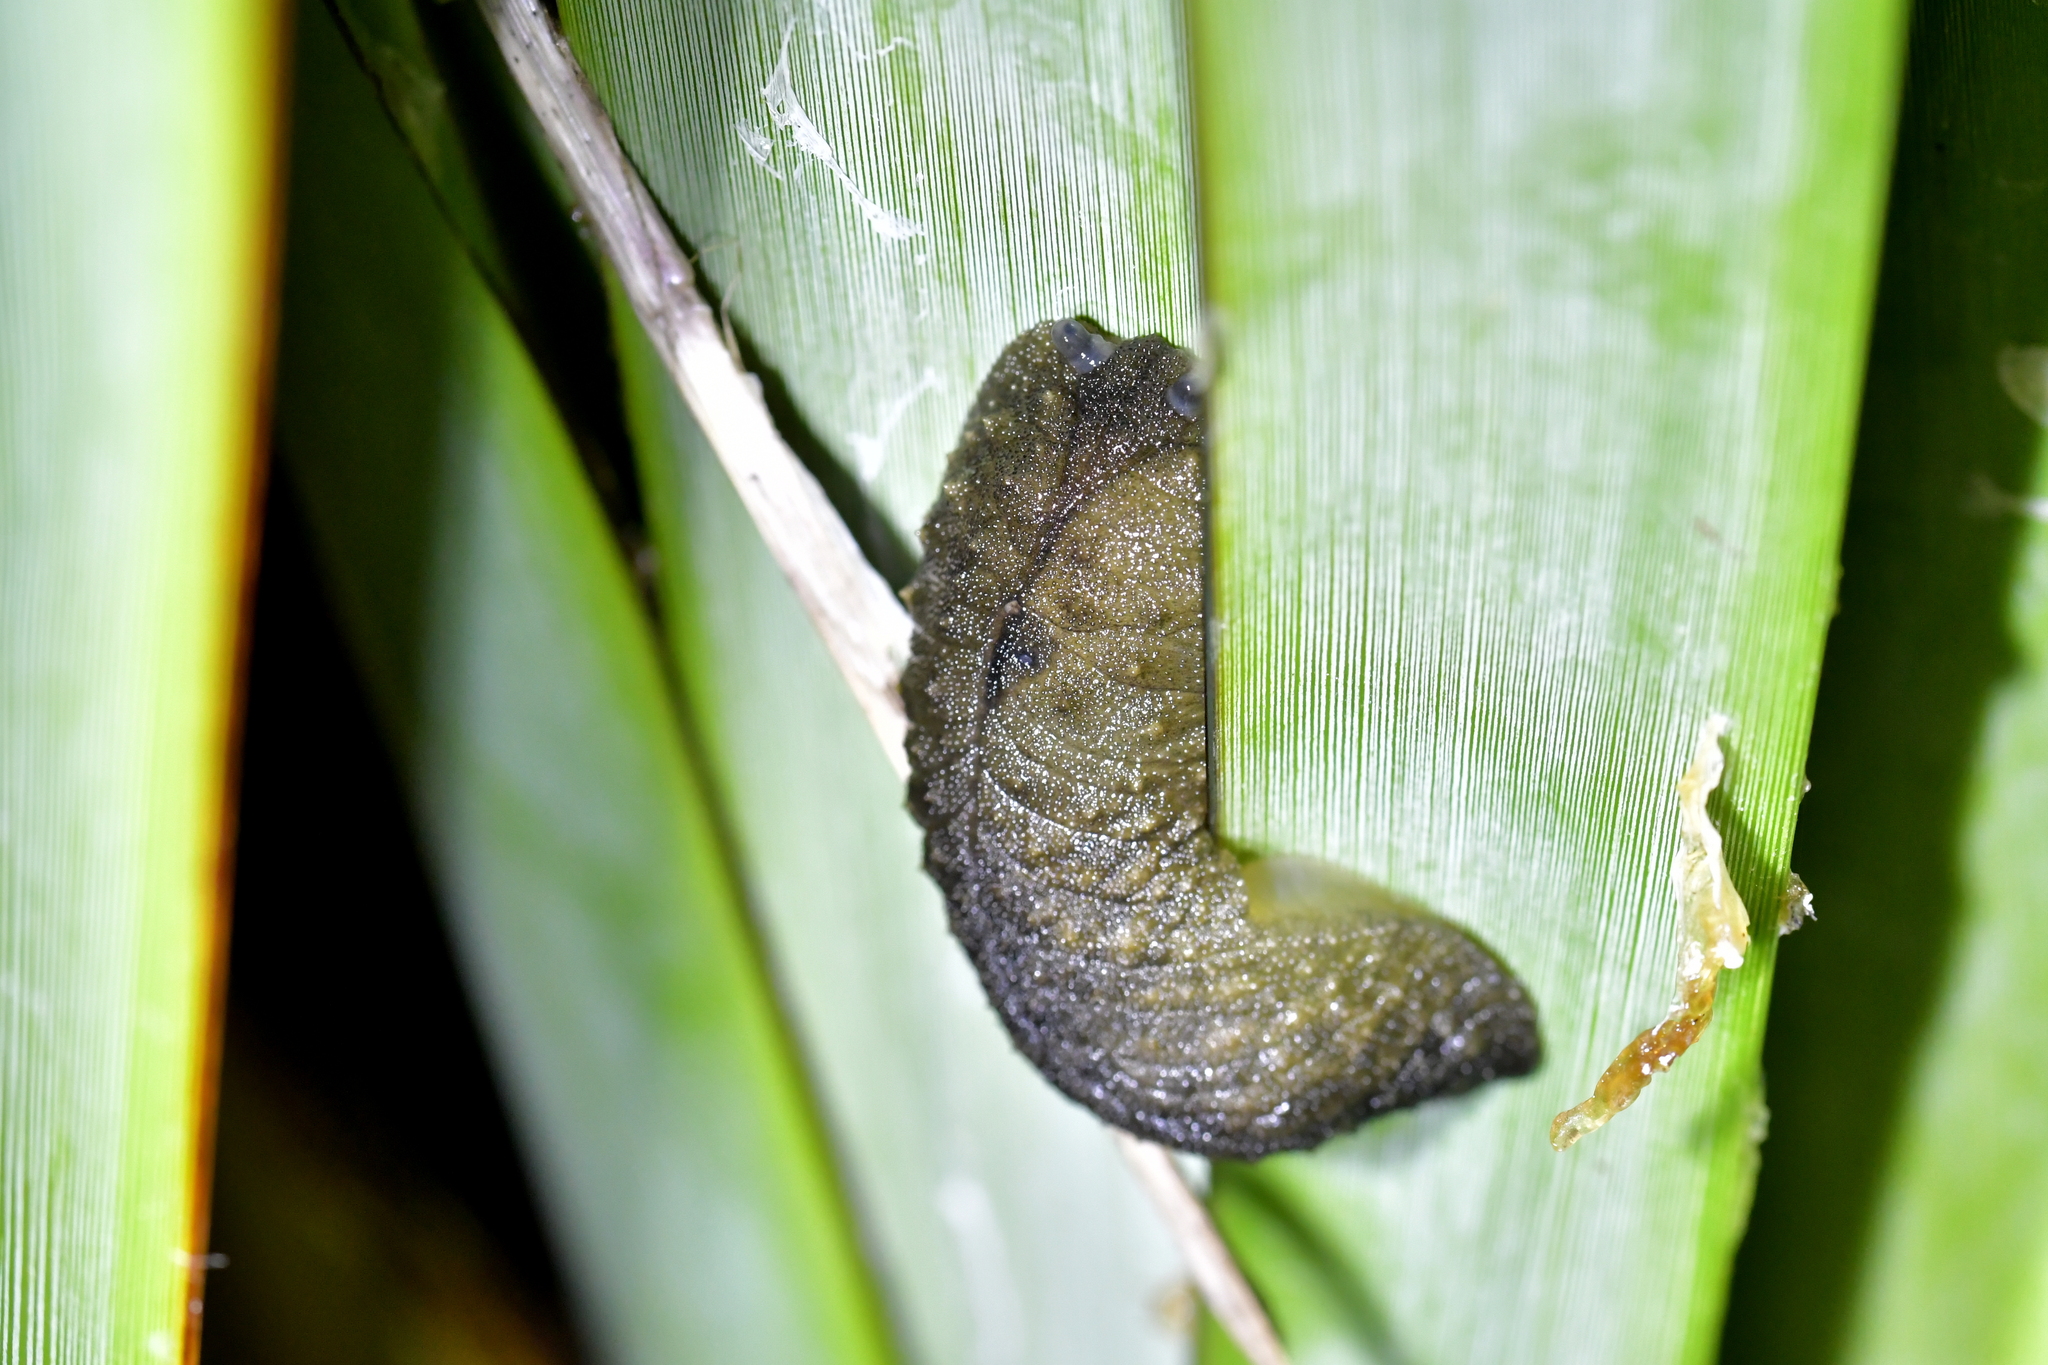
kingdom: Animalia
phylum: Mollusca
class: Gastropoda
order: Stylommatophora
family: Athoracophoridae
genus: Athoracophorus
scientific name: Athoracophorus papillatus
